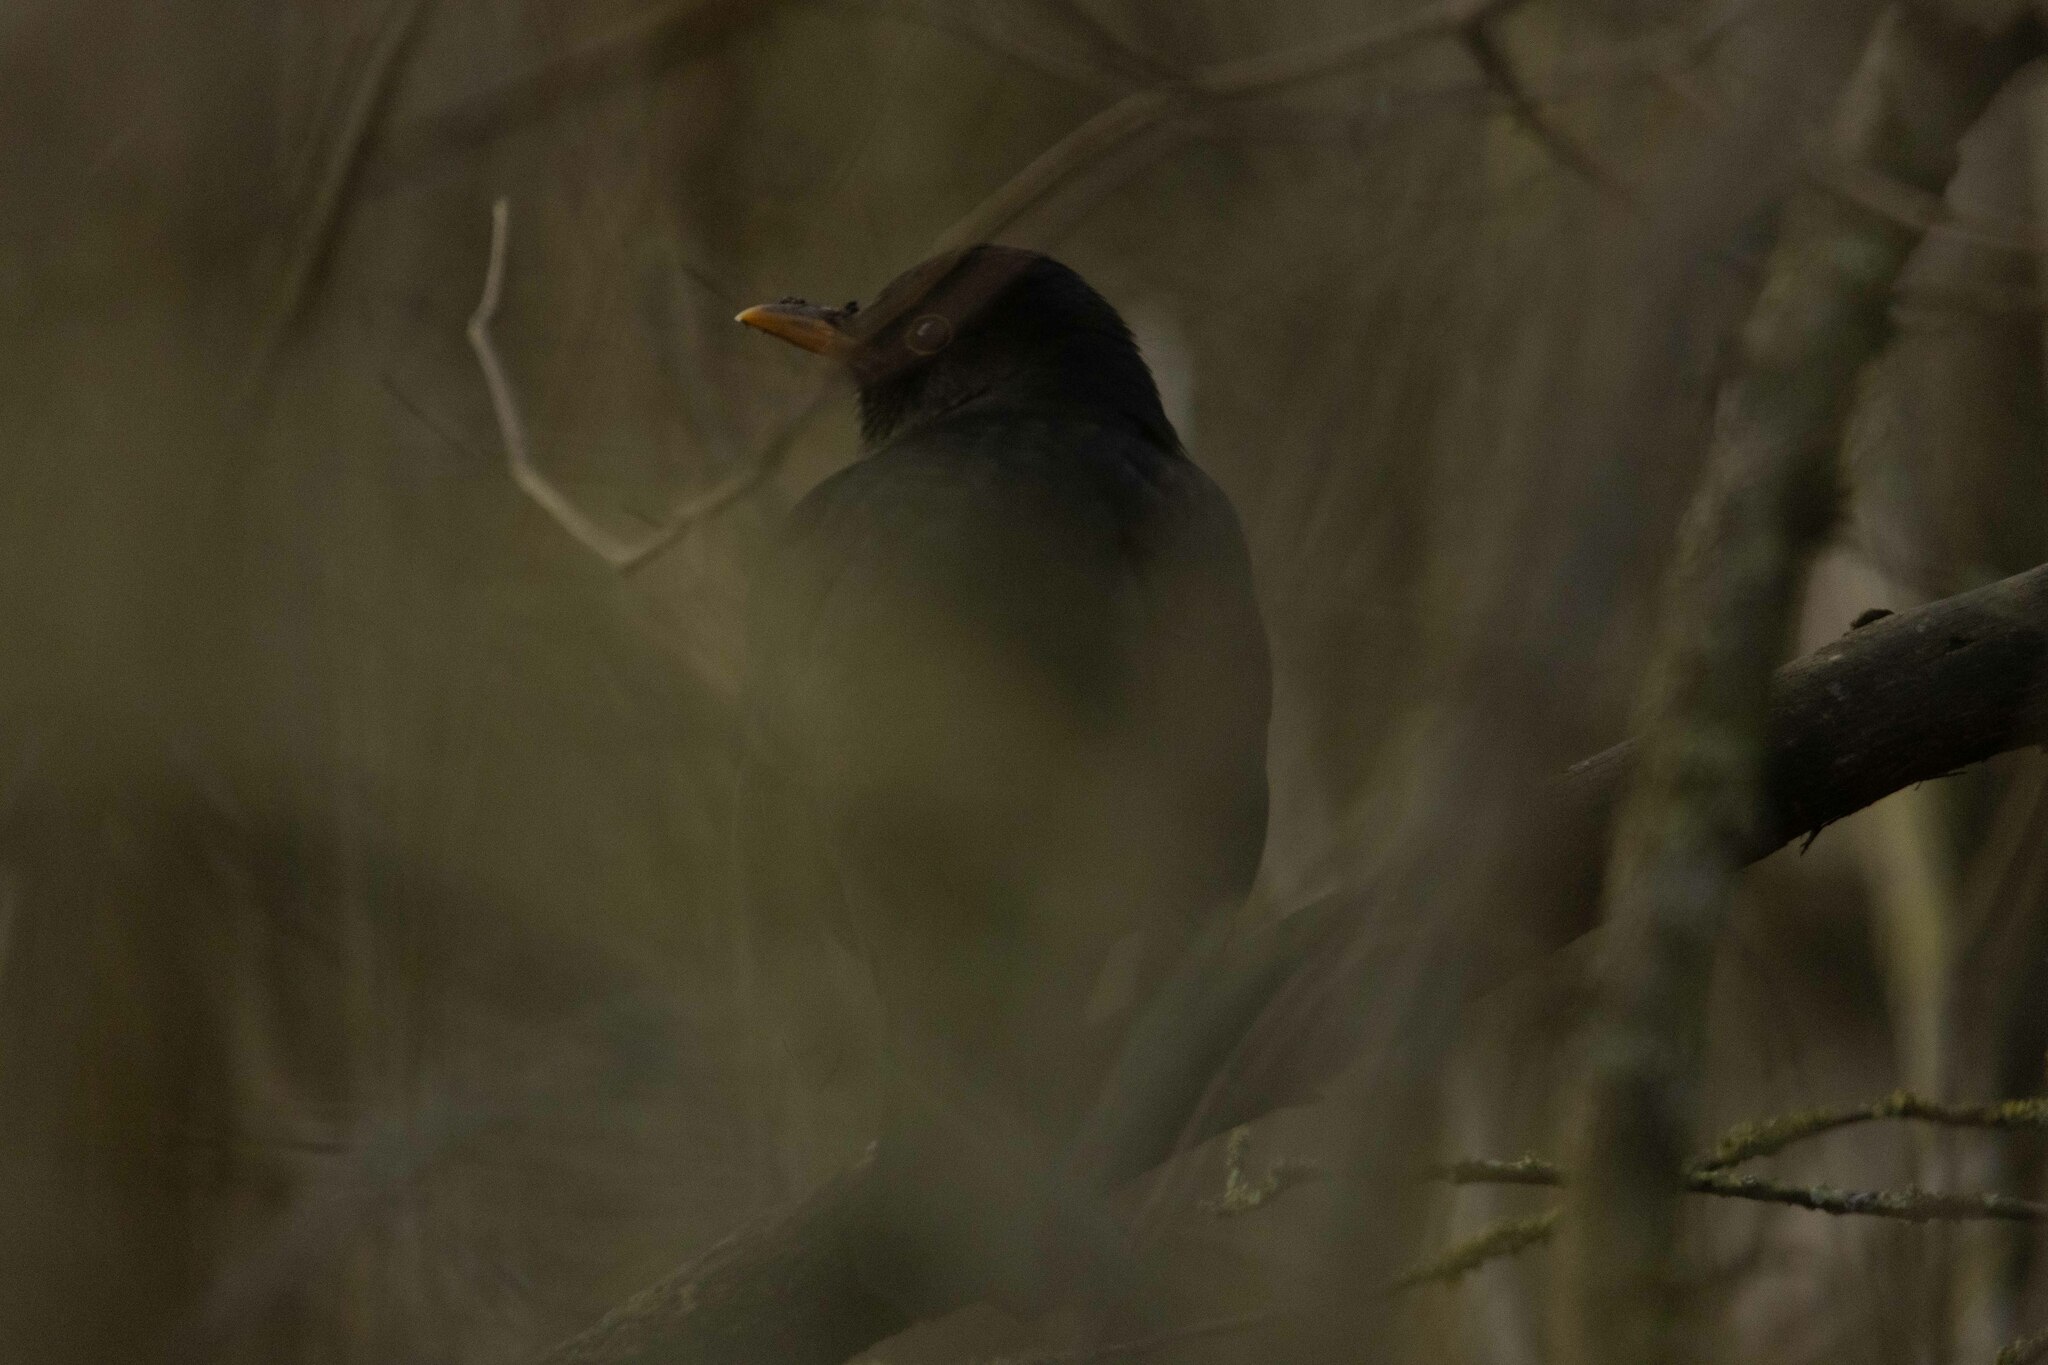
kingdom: Animalia
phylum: Chordata
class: Aves
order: Passeriformes
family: Turdidae
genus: Turdus
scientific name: Turdus merula
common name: Common blackbird
